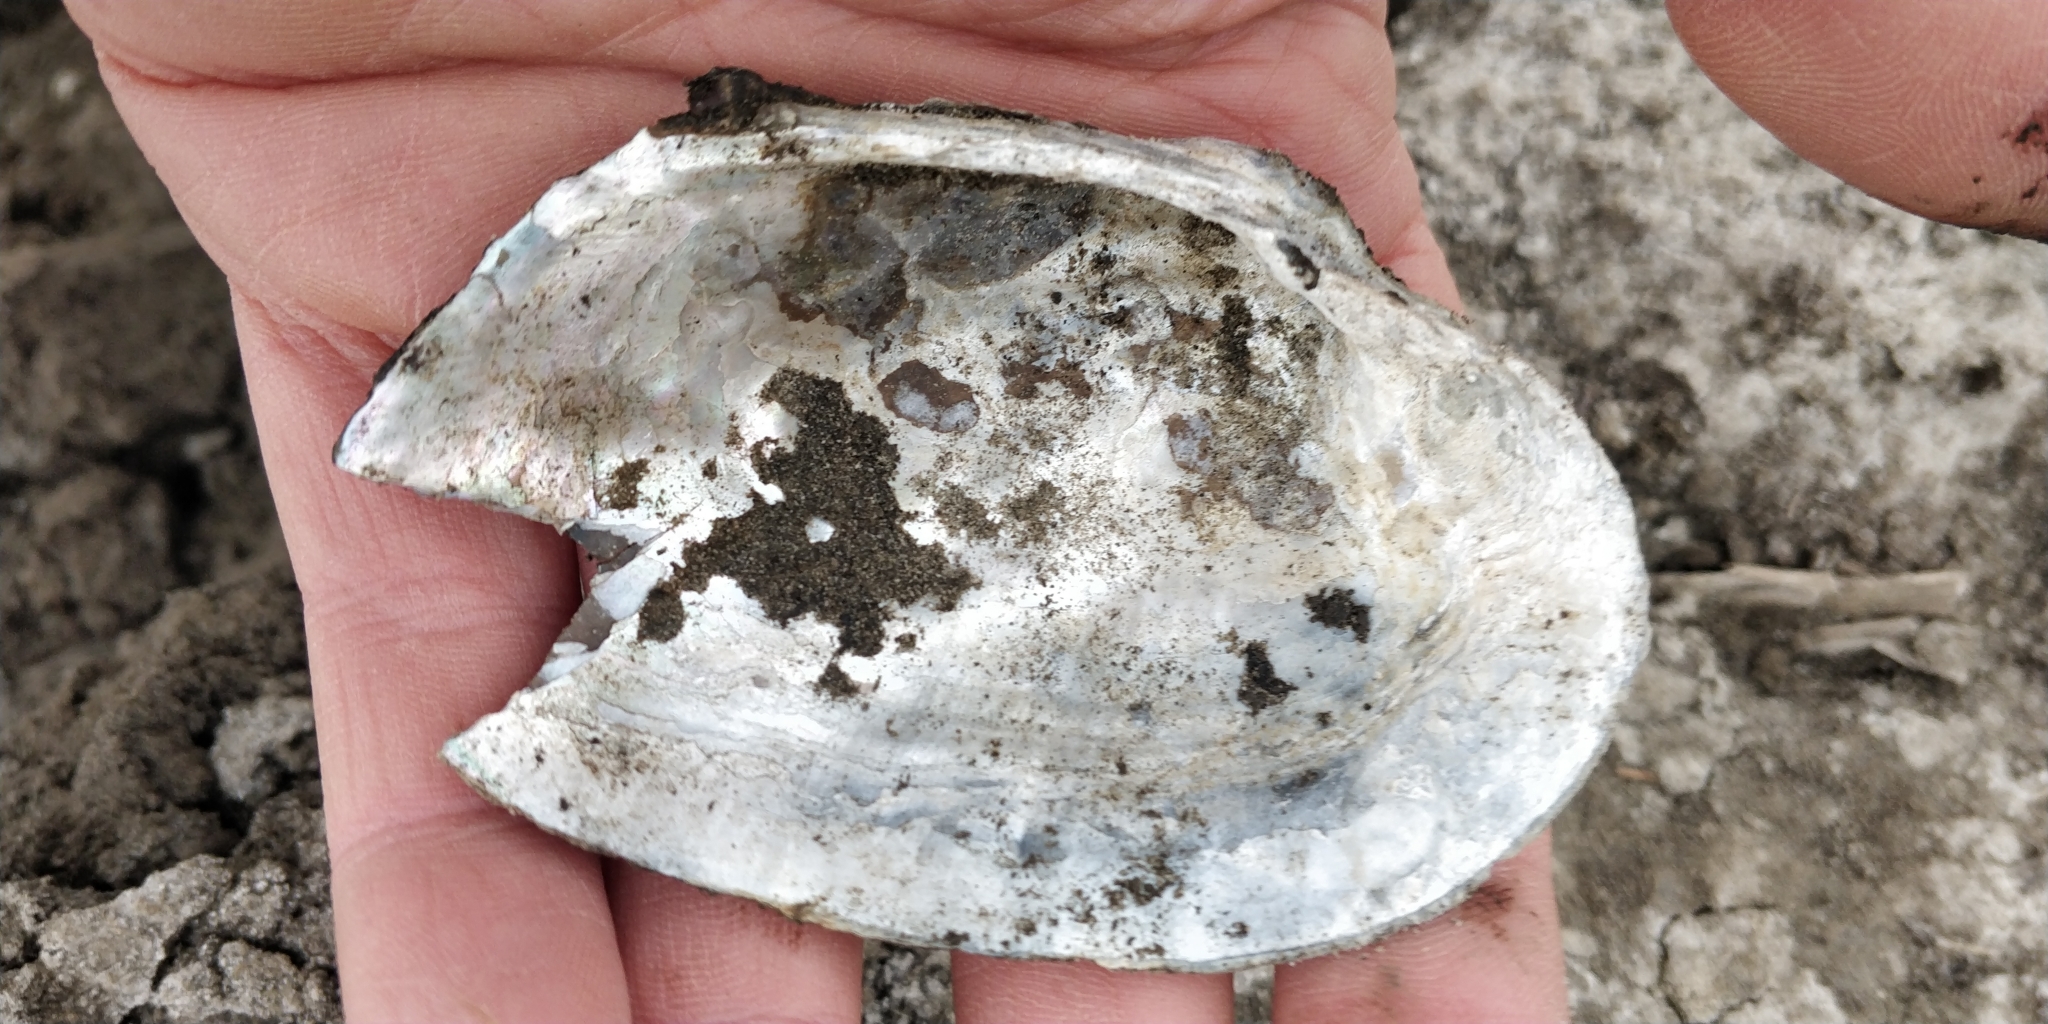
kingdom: Animalia
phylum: Mollusca
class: Bivalvia
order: Unionida
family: Unionidae
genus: Arcidens
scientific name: Arcidens confragosus
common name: Rock pocketbook
